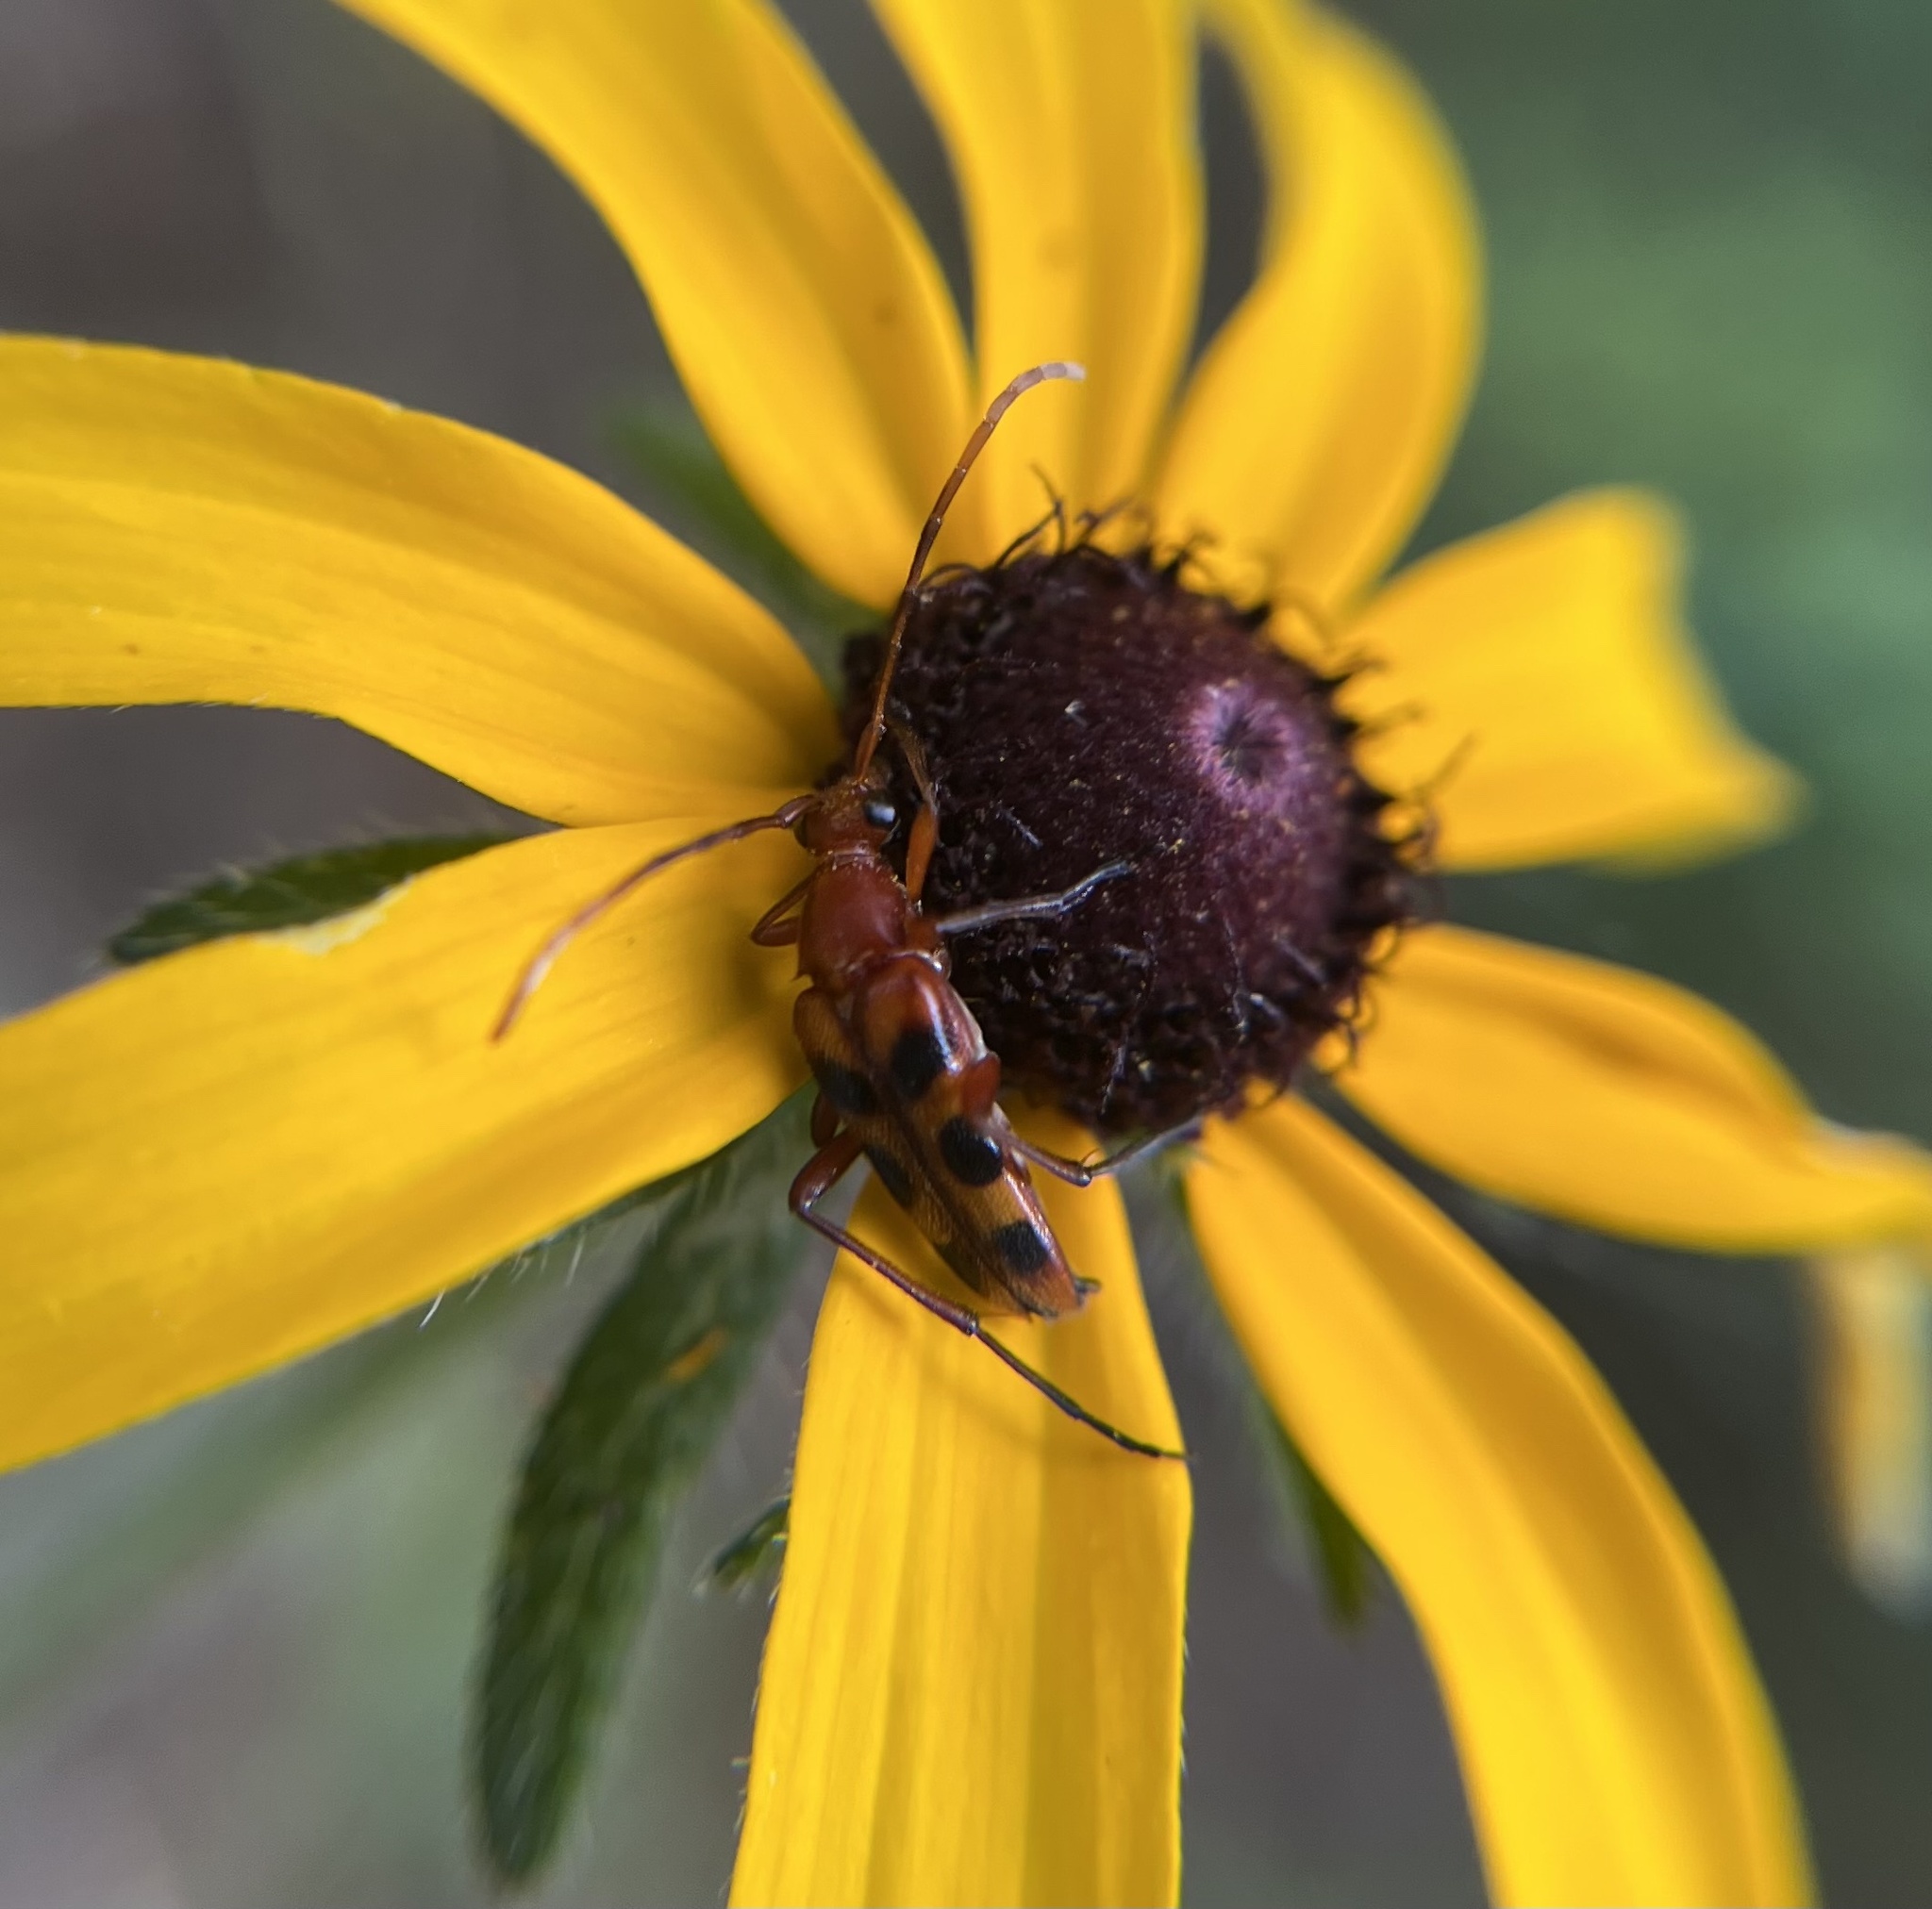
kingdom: Animalia
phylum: Arthropoda
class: Insecta
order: Coleoptera
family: Cerambycidae
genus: Strangalia
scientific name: Strangalia sexnotata
